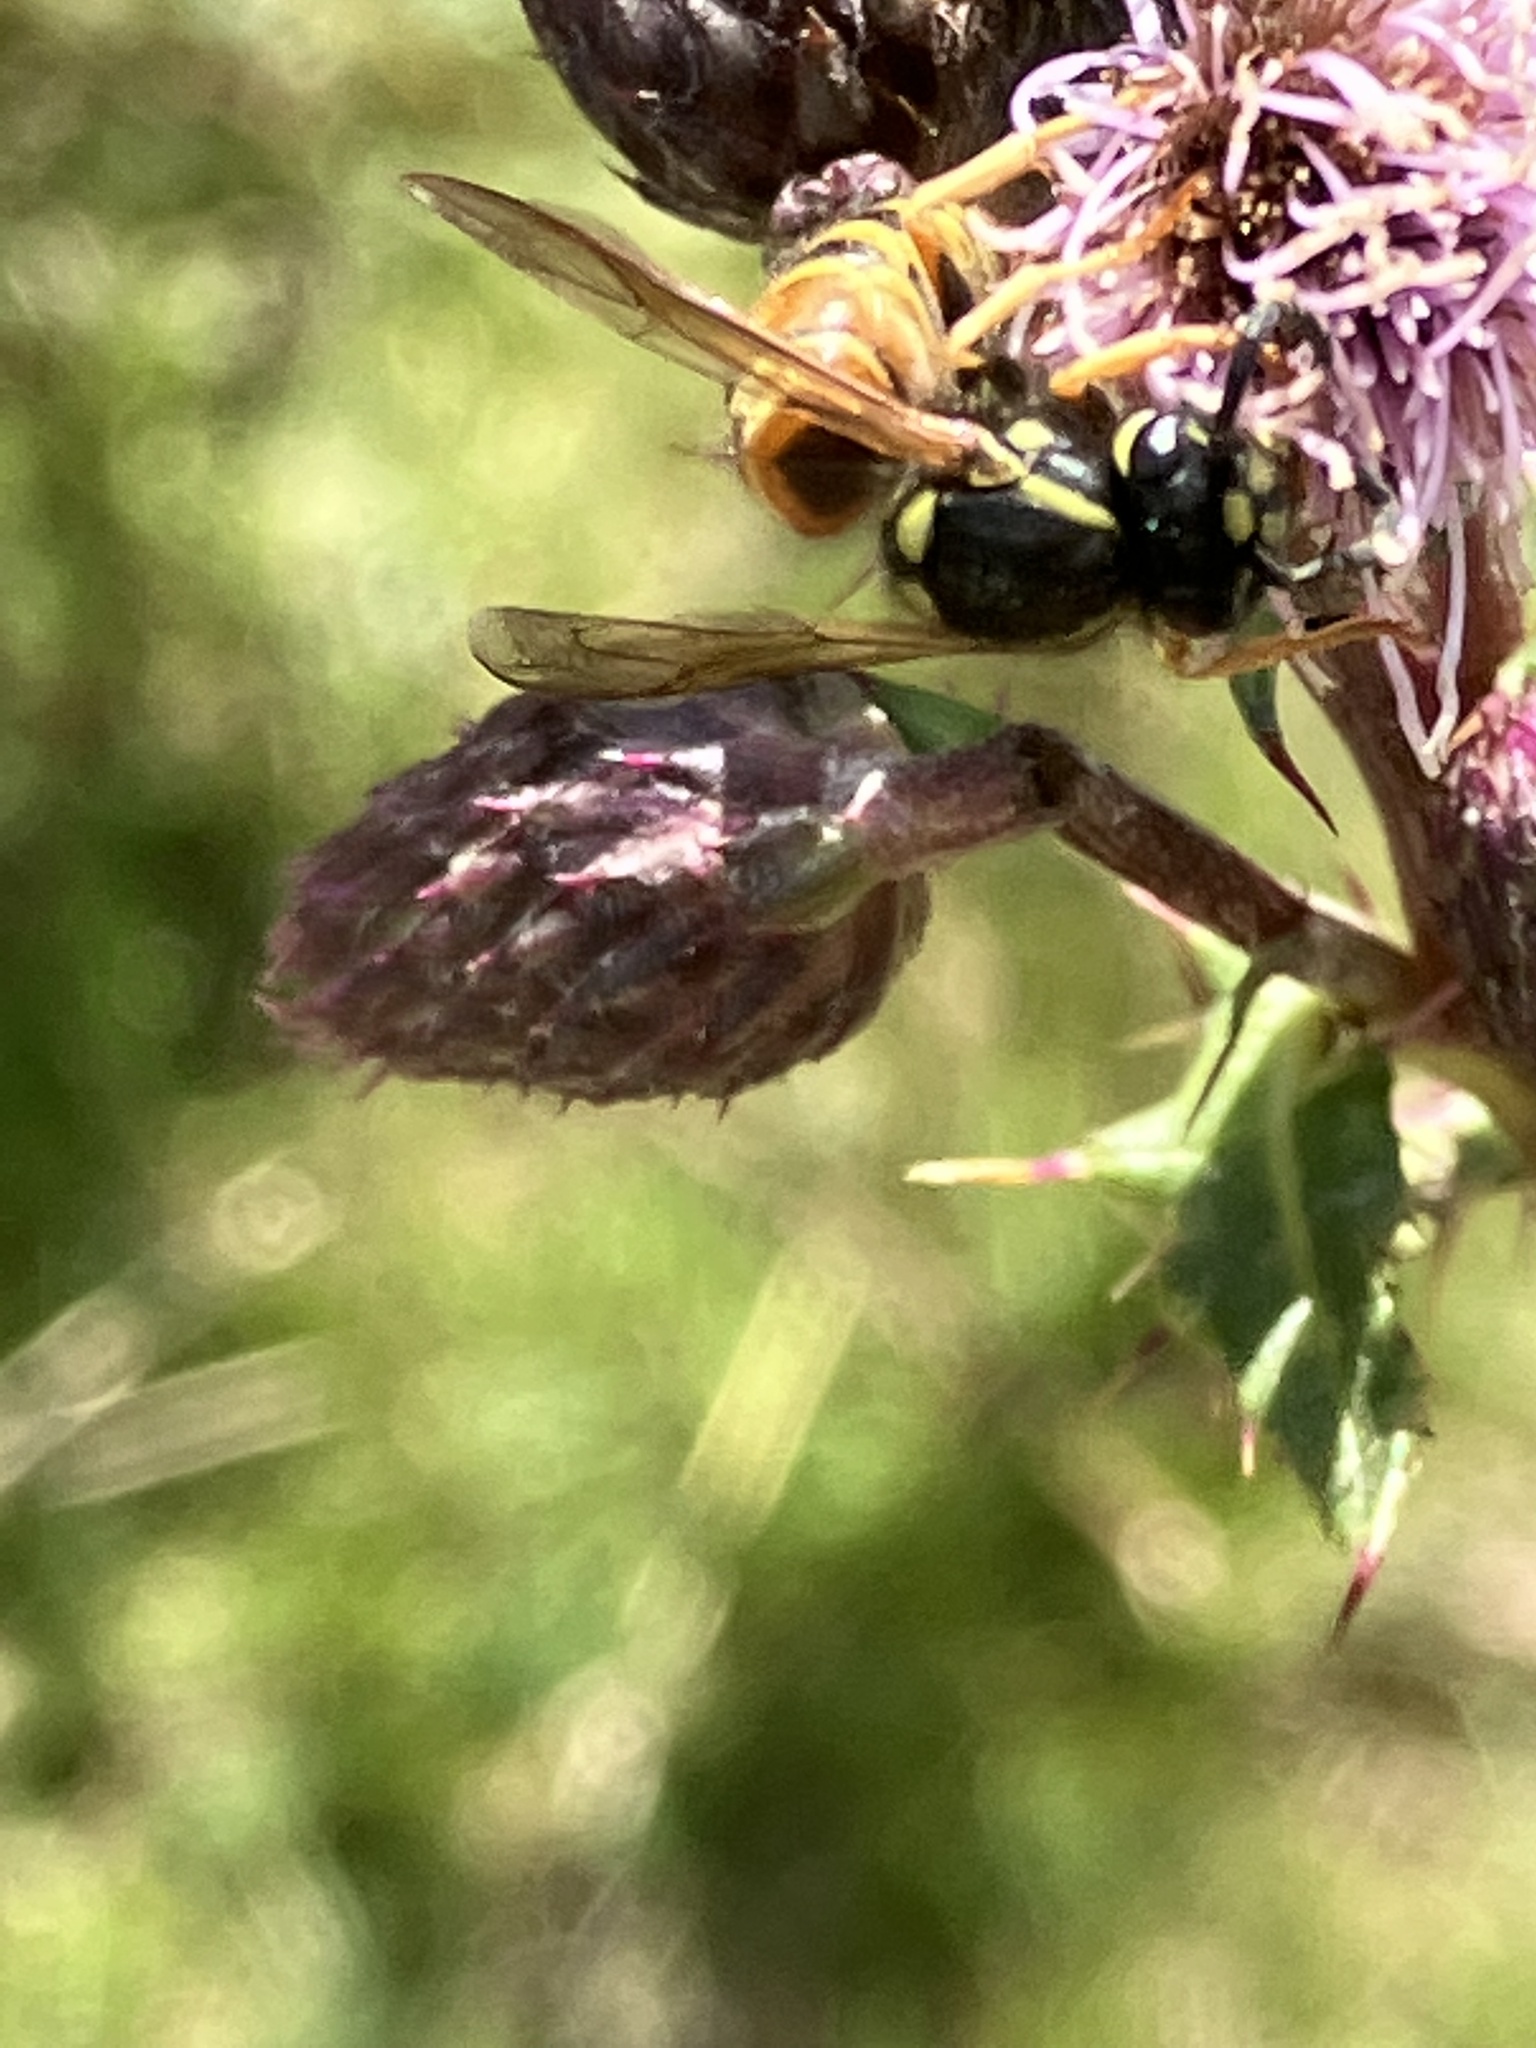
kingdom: Animalia
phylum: Arthropoda
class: Insecta
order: Hymenoptera
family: Vespidae
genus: Vespula
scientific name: Vespula rufa
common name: Red wasp
